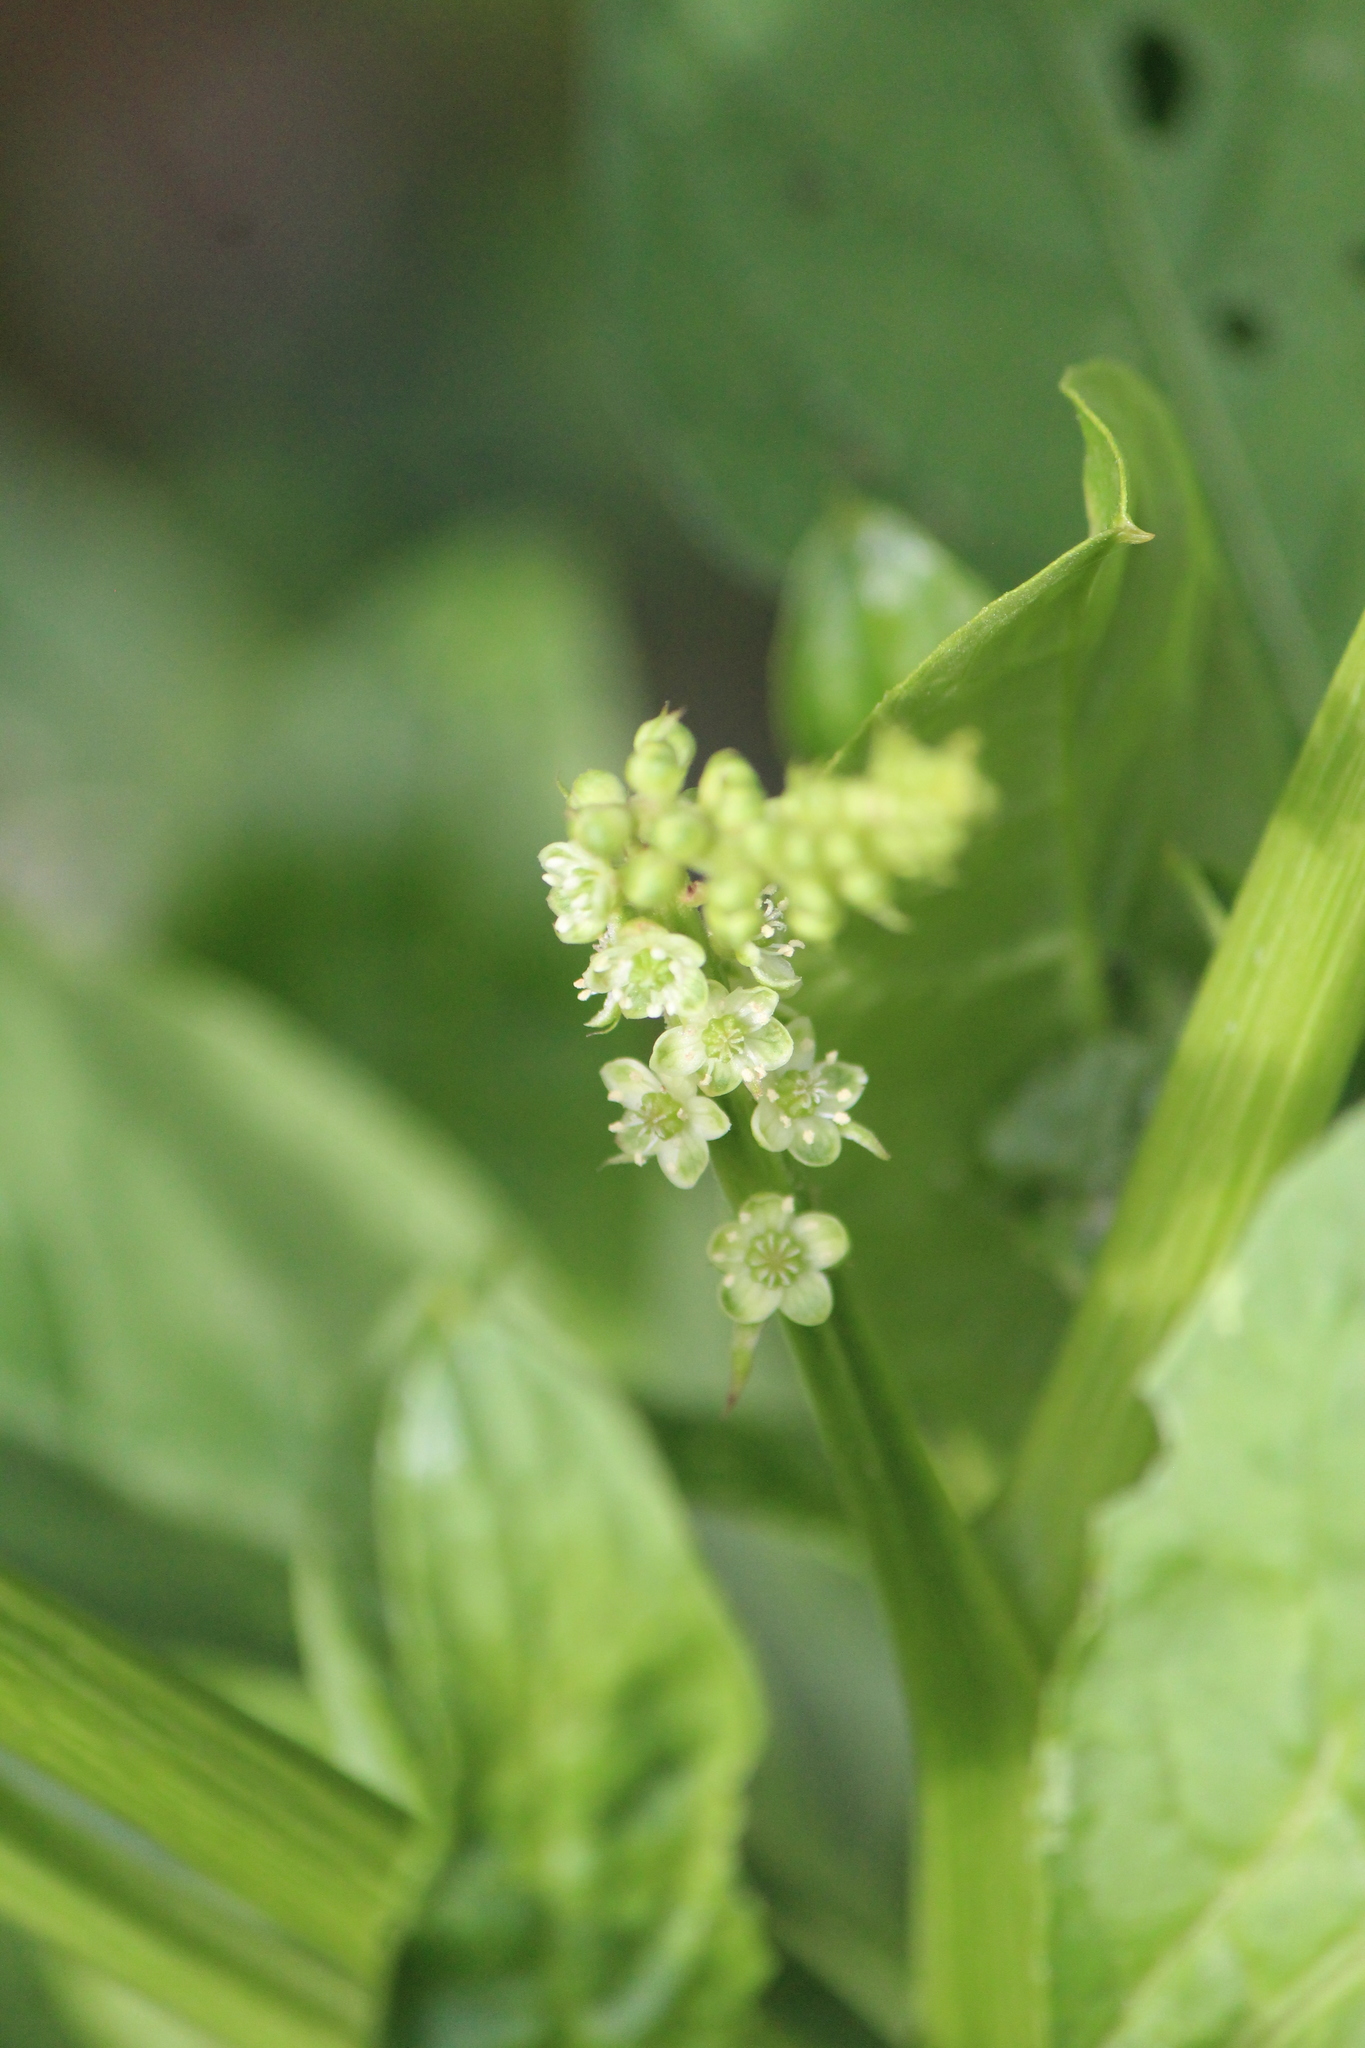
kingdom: Plantae
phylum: Tracheophyta
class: Magnoliopsida
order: Caryophyllales
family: Phytolaccaceae
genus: Phytolacca
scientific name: Phytolacca icosandra
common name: Button pokeweed
